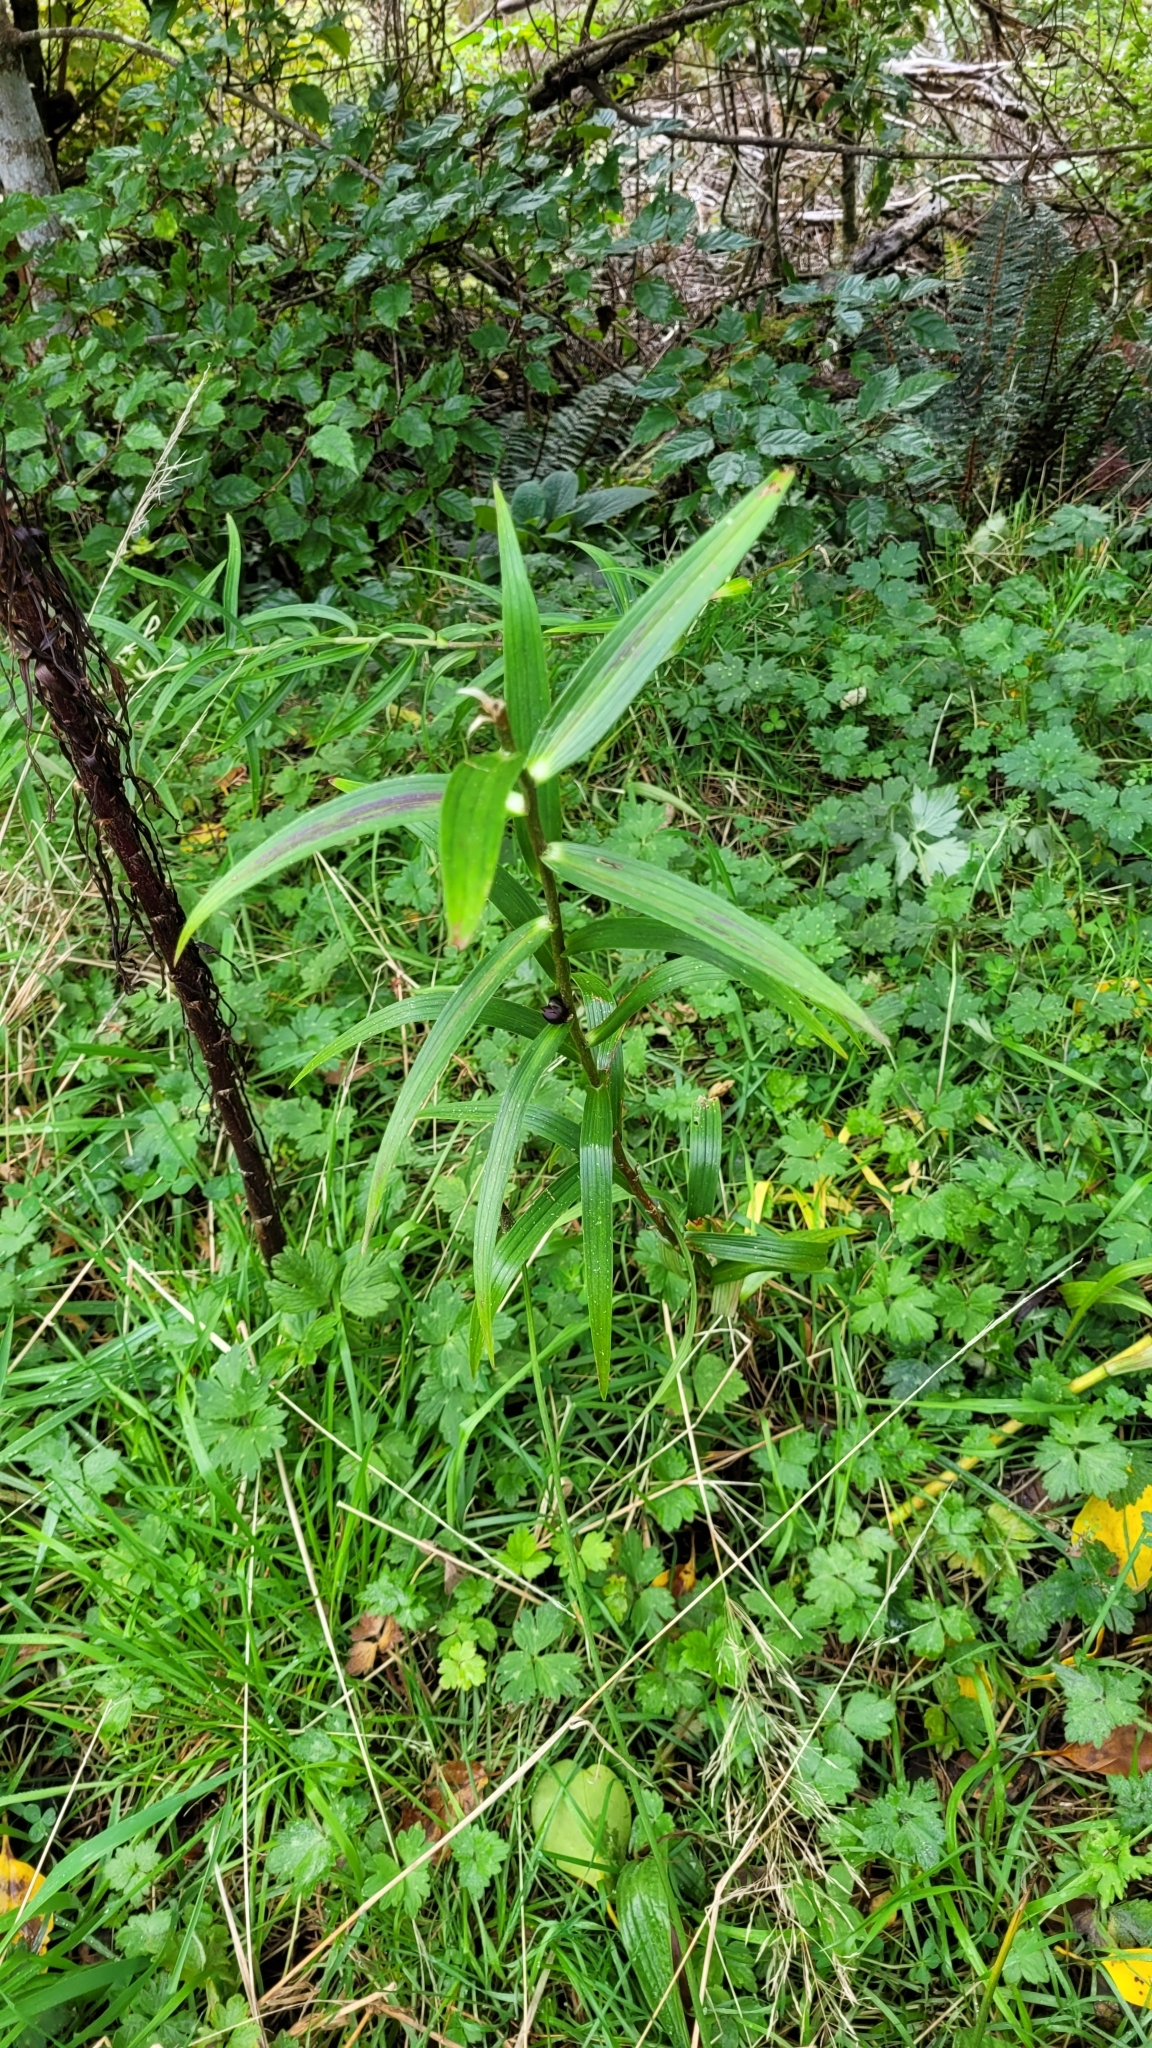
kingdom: Plantae
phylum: Tracheophyta
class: Liliopsida
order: Liliales
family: Liliaceae
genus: Lilium
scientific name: Lilium lancifolium
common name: Tiger lily
